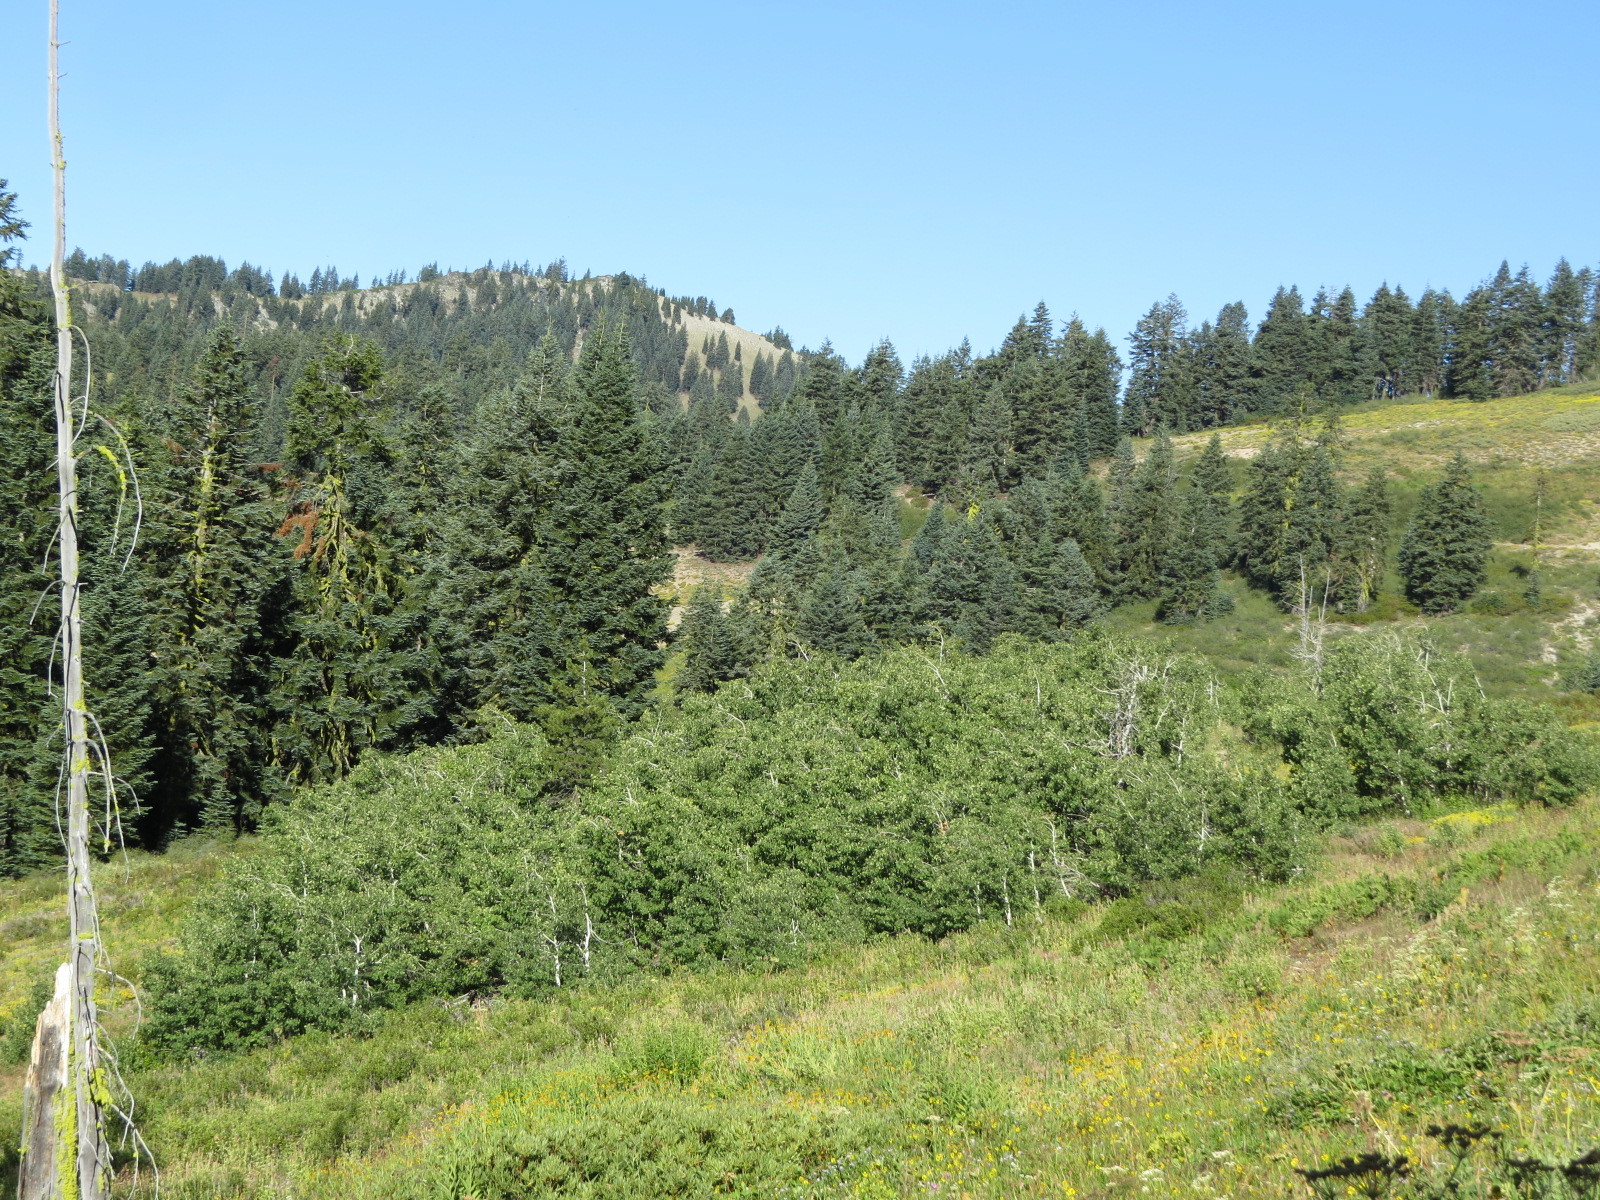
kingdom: Plantae
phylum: Tracheophyta
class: Magnoliopsida
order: Malpighiales
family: Salicaceae
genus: Populus
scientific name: Populus tremuloides
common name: Quaking aspen
